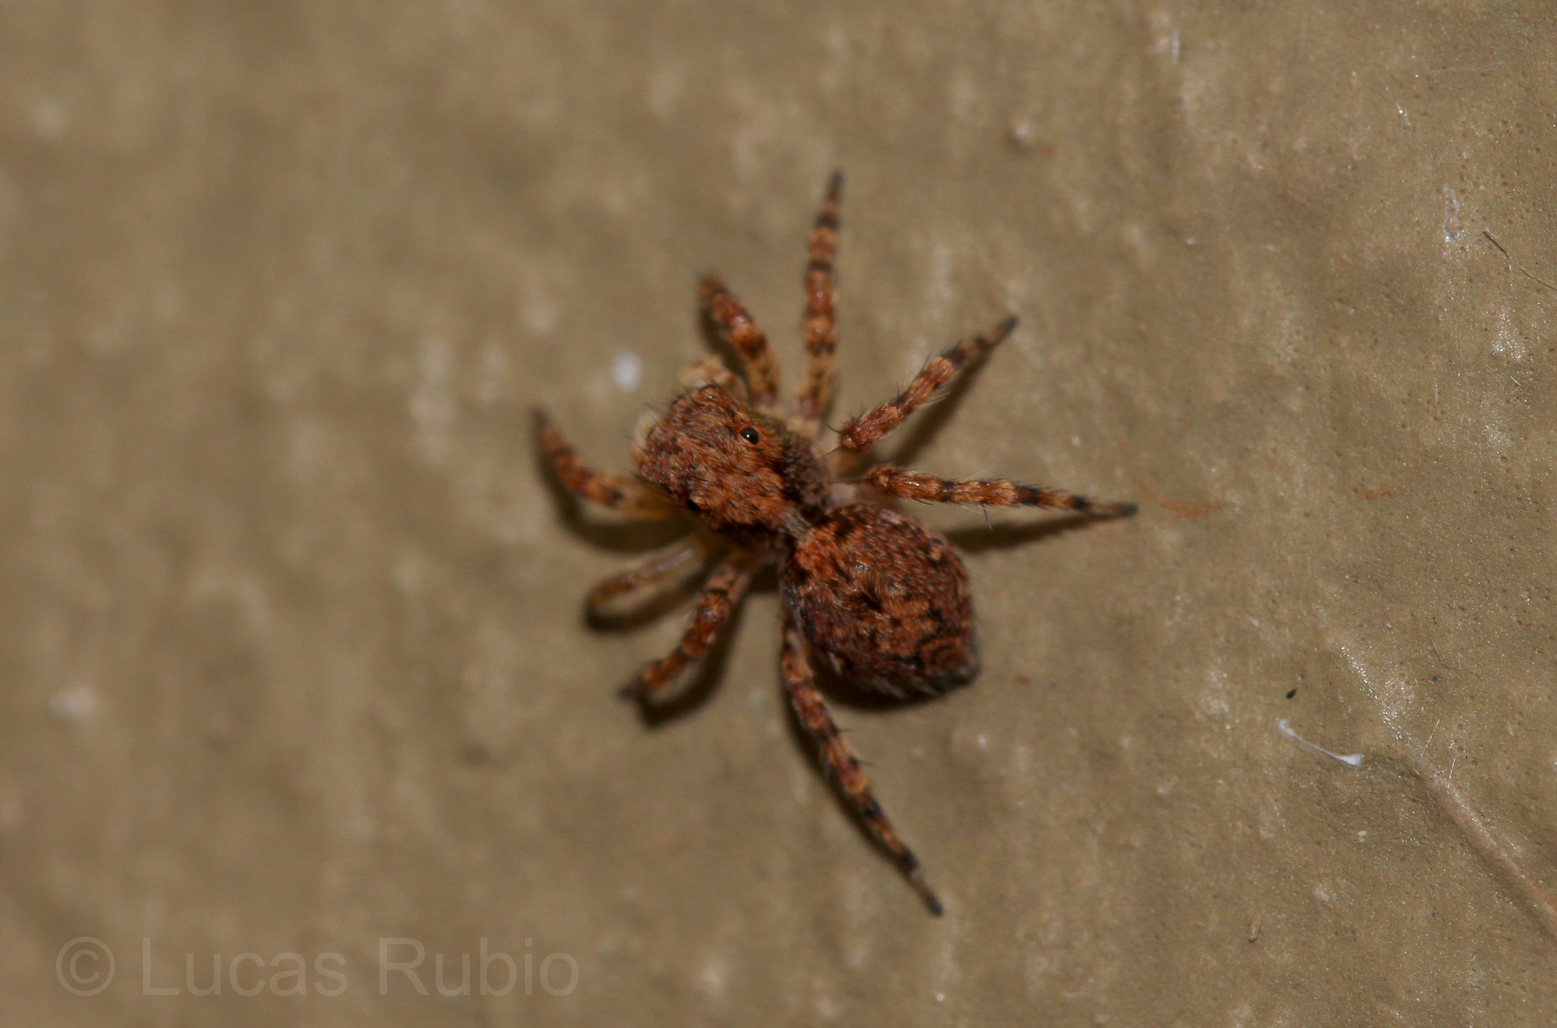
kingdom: Animalia
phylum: Arthropoda
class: Arachnida
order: Araneae
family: Salticidae
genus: Marma
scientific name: Marma nigritarsis
